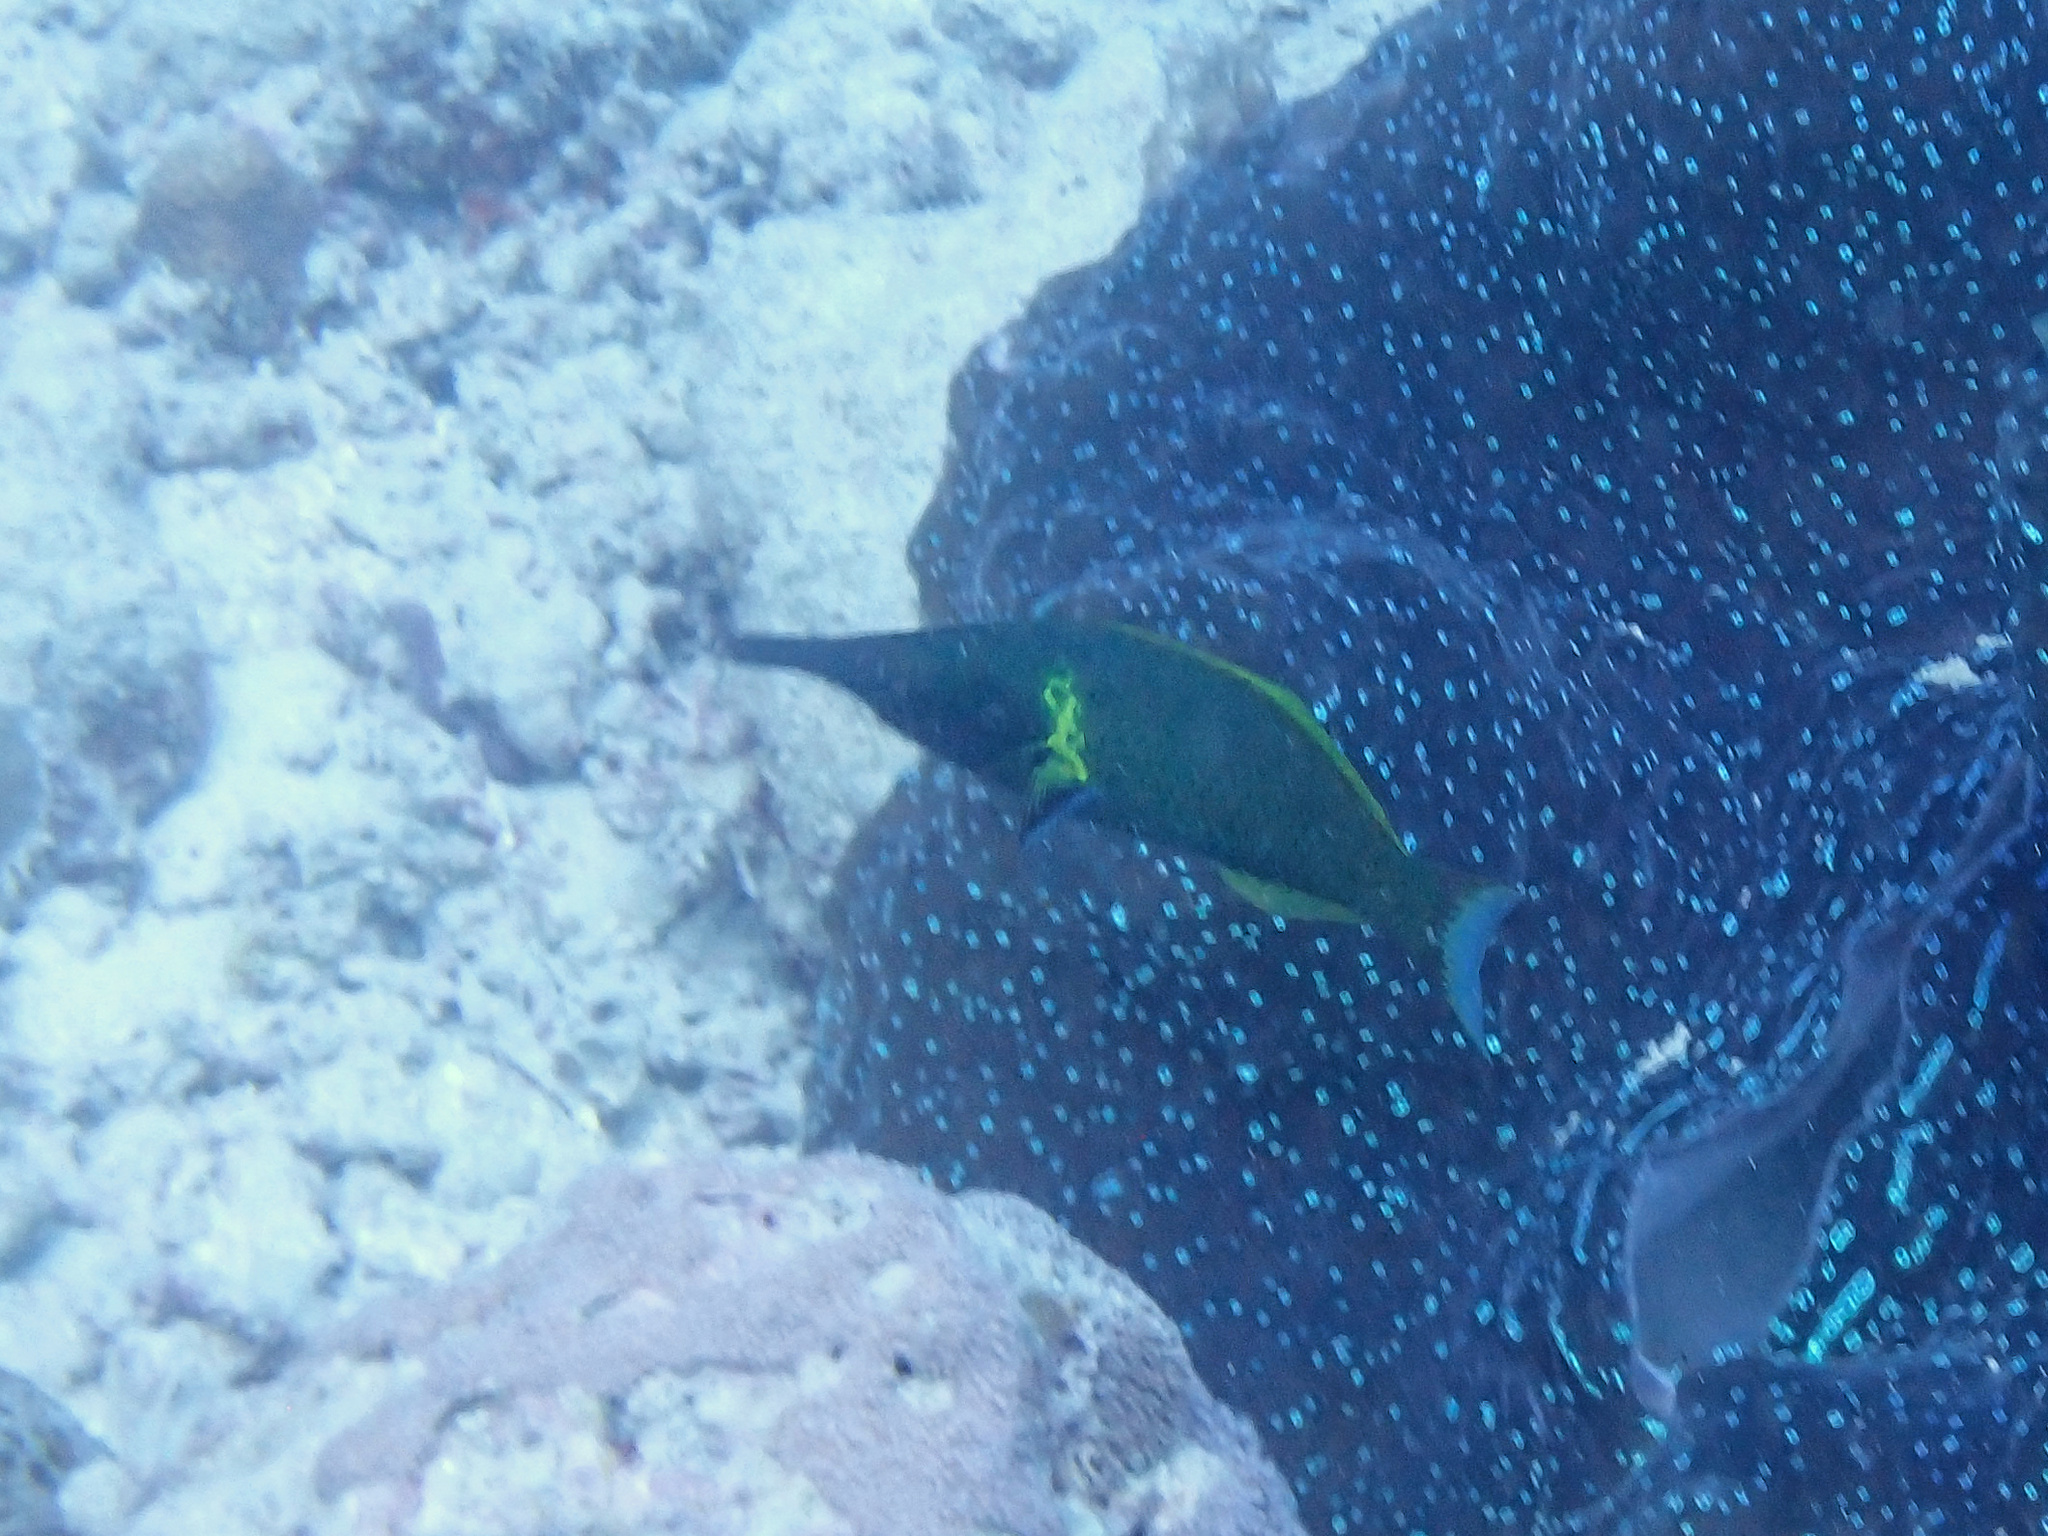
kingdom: Animalia
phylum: Chordata
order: Perciformes
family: Labridae
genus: Gomphosus
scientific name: Gomphosus varius
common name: Bird wrasse
